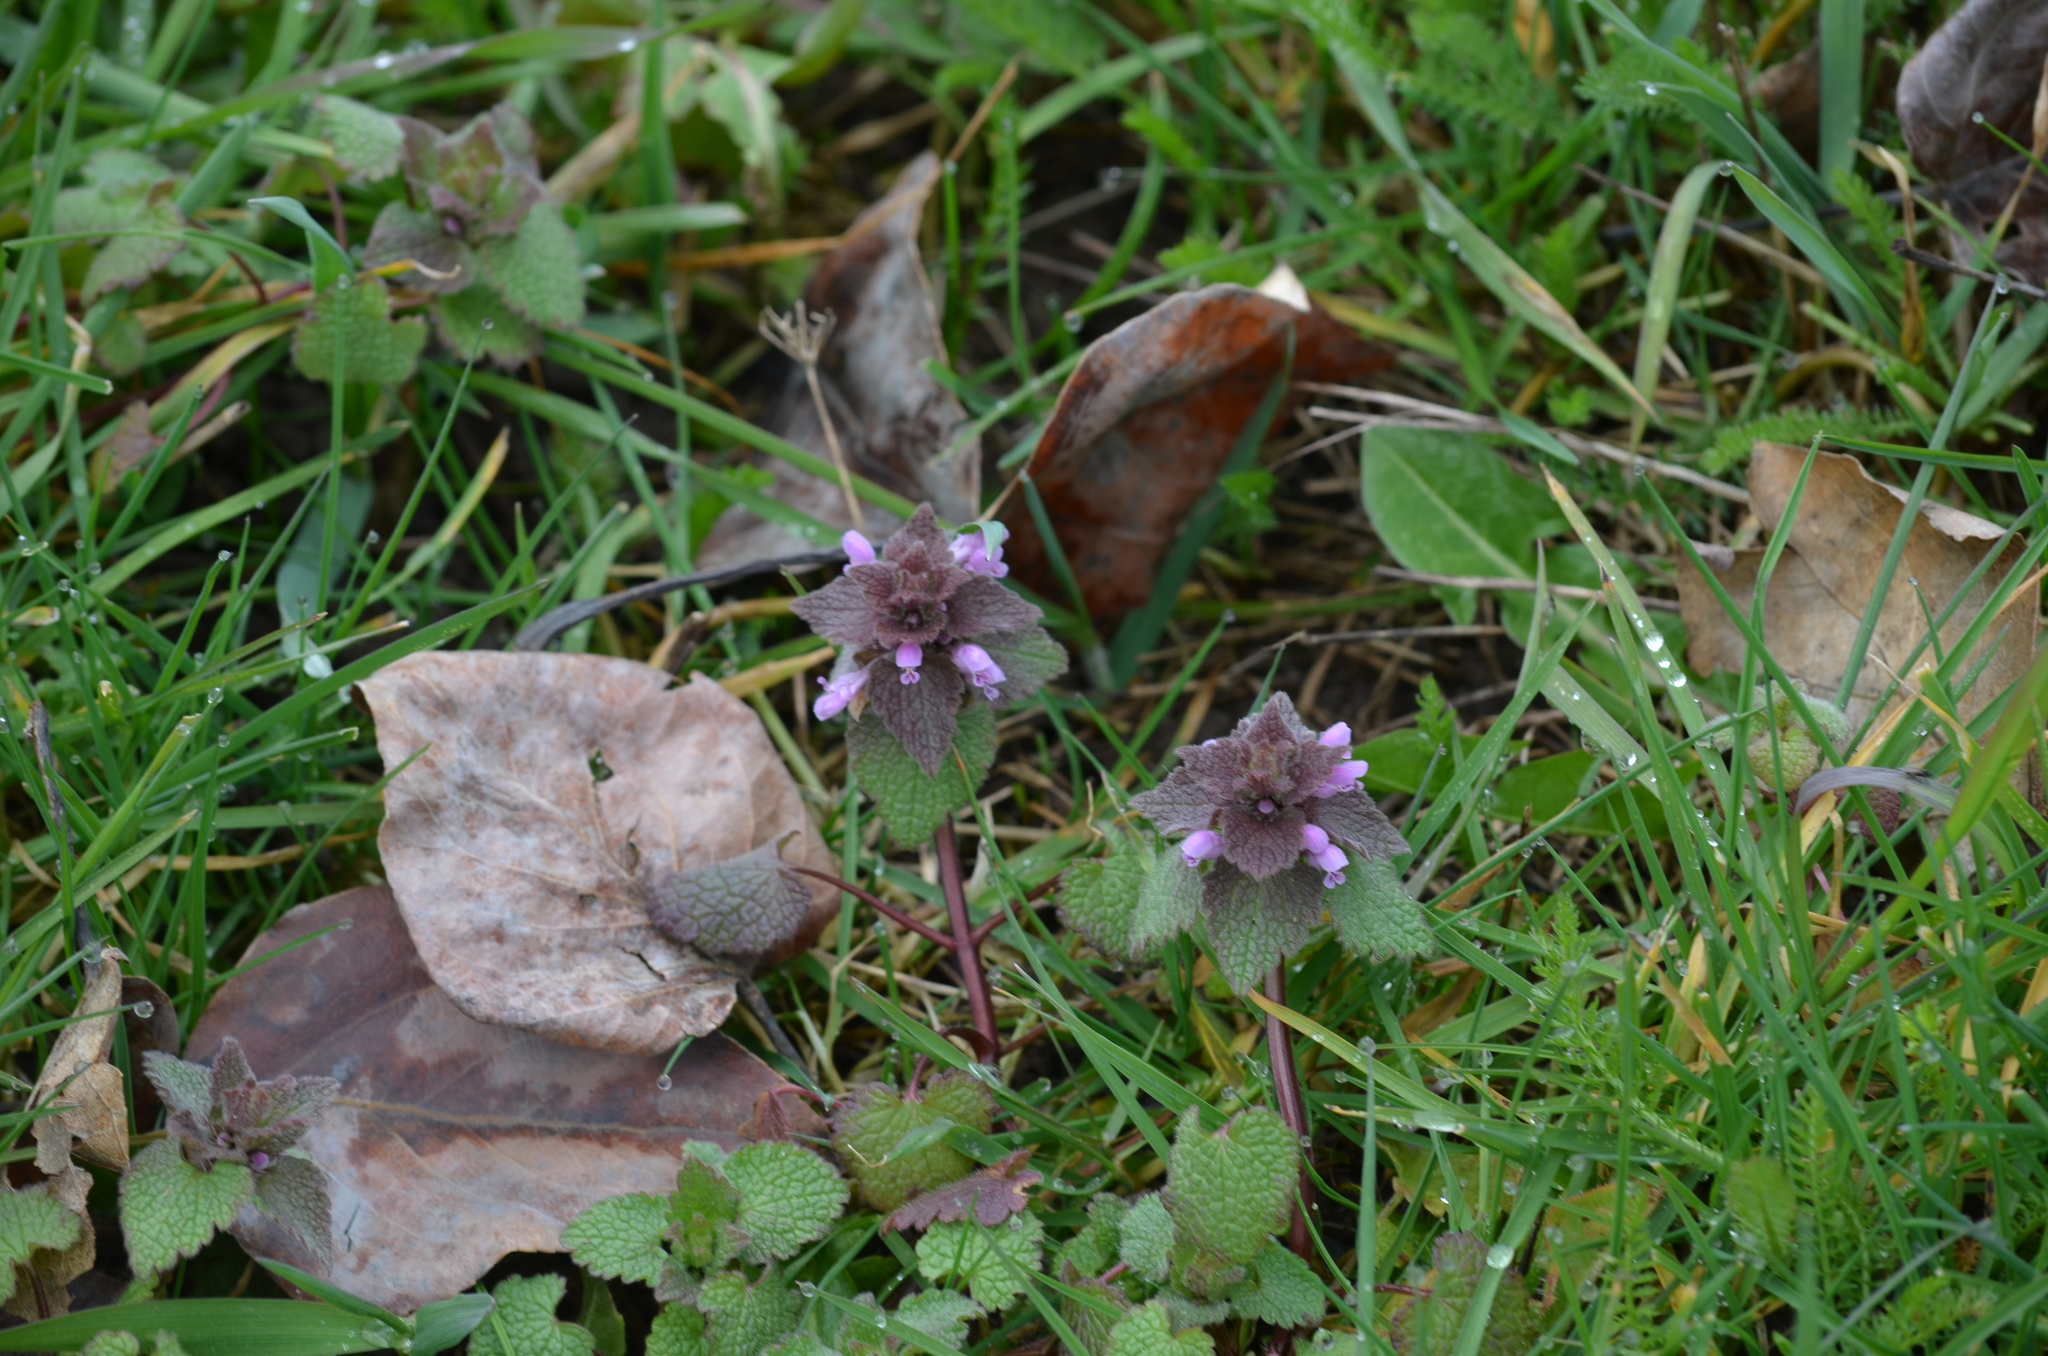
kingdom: Plantae
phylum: Tracheophyta
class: Magnoliopsida
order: Lamiales
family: Lamiaceae
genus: Lamium
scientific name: Lamium purpureum
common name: Red dead-nettle
